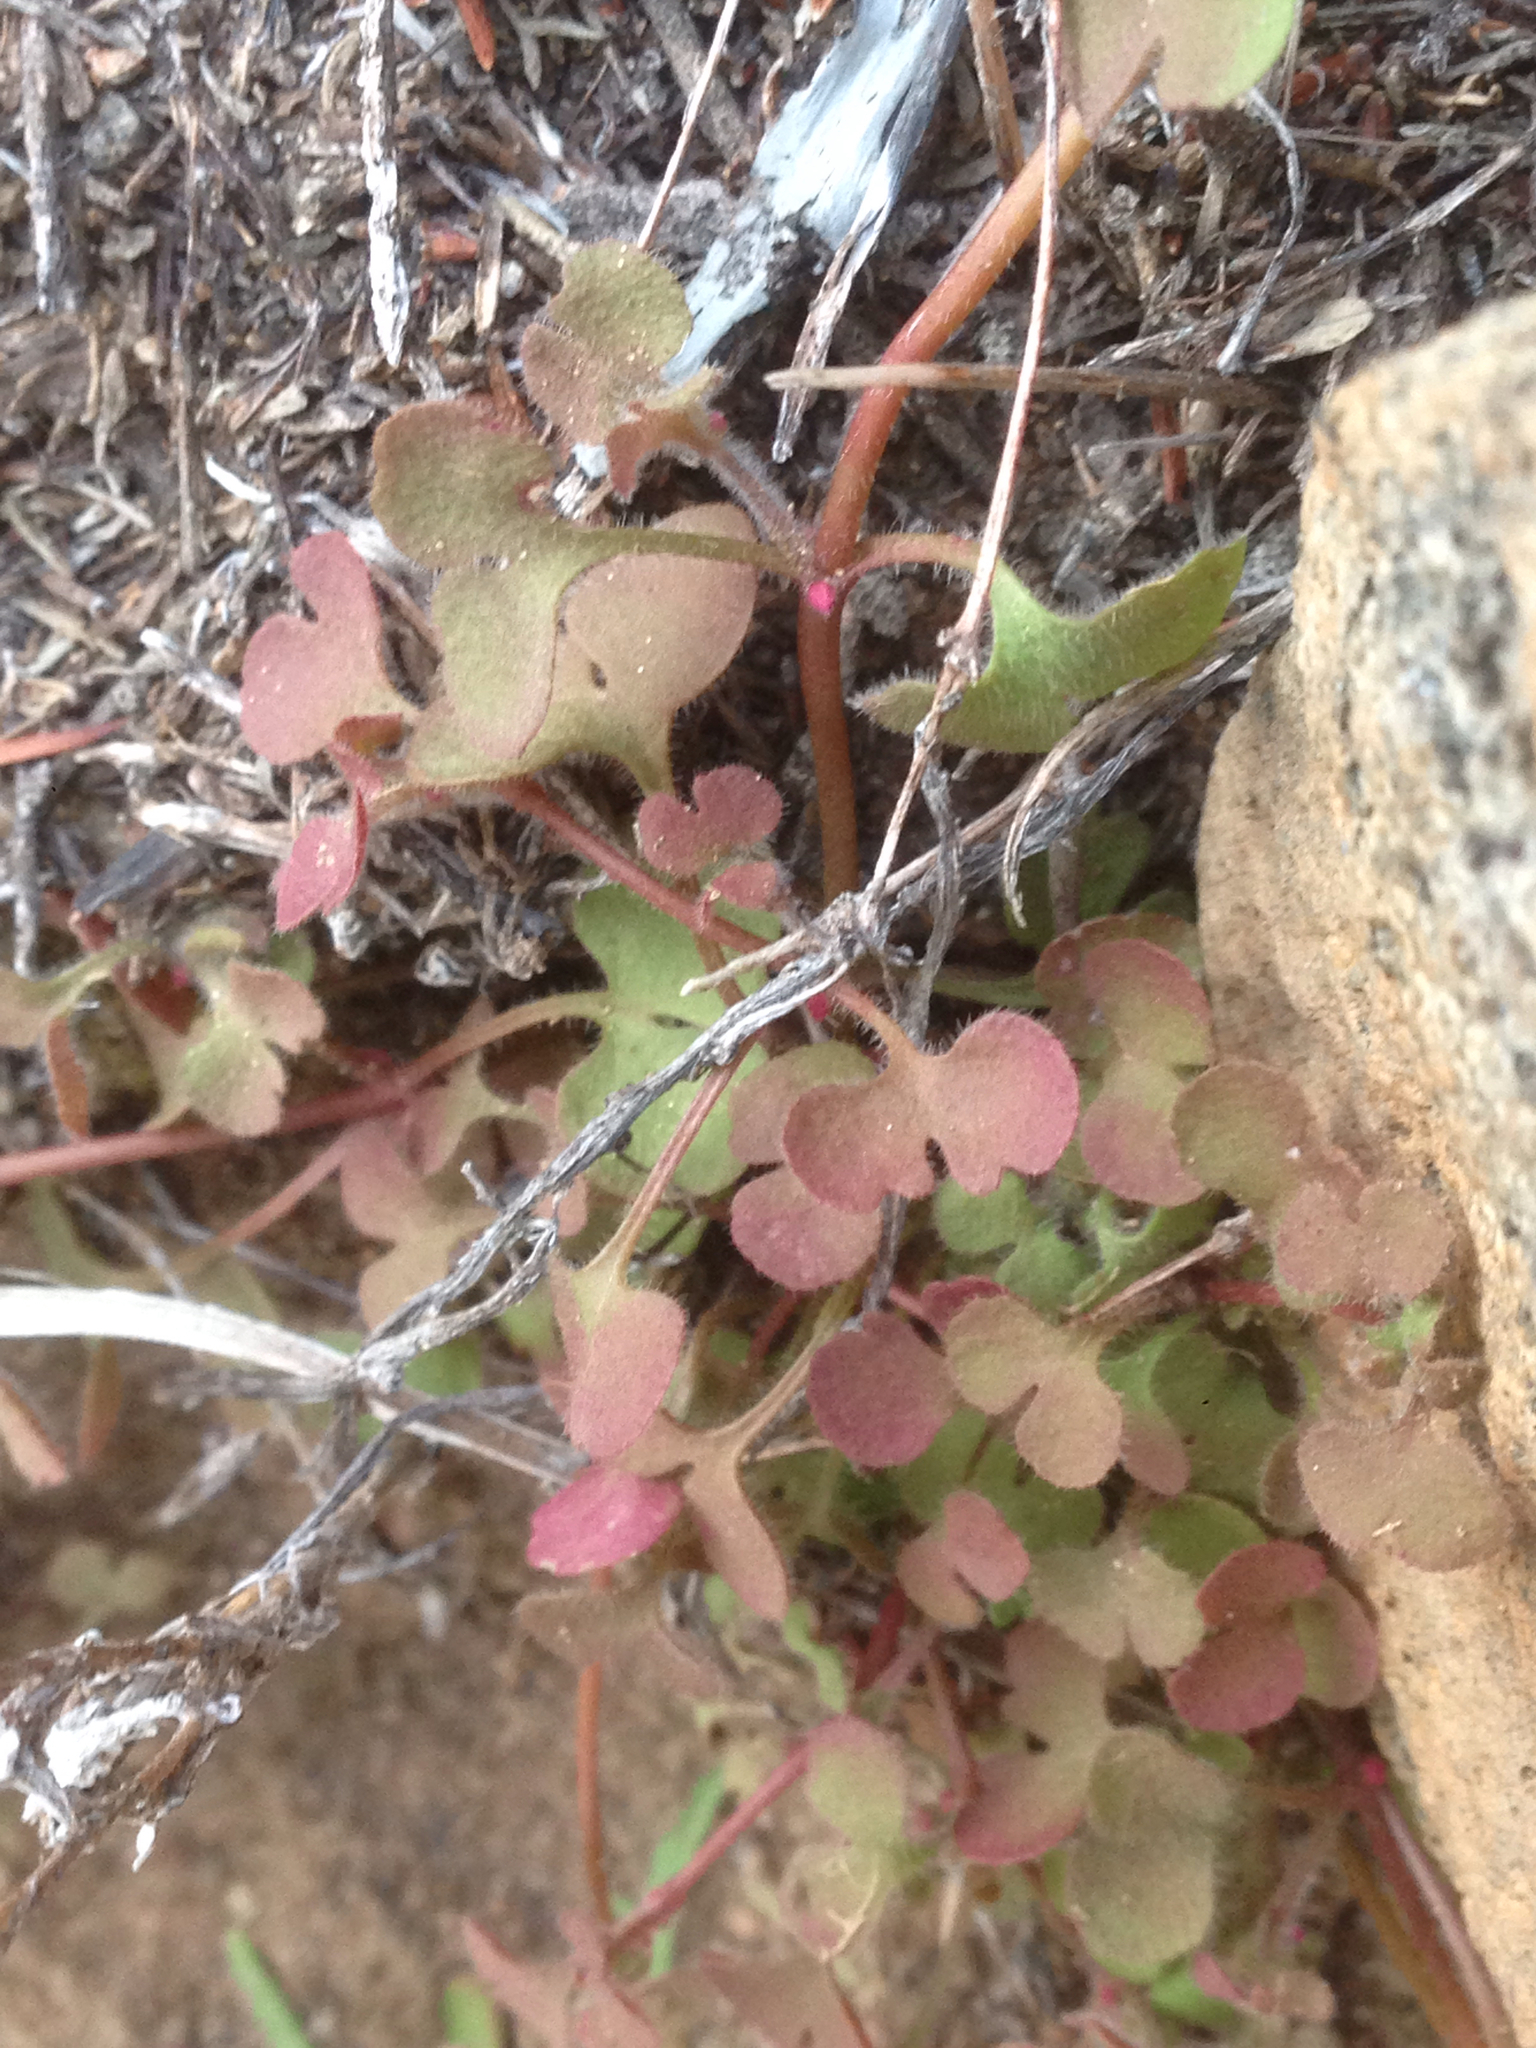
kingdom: Plantae
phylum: Tracheophyta
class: Magnoliopsida
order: Caryophyllales
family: Polygonaceae
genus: Pterostegia
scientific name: Pterostegia drymarioides
